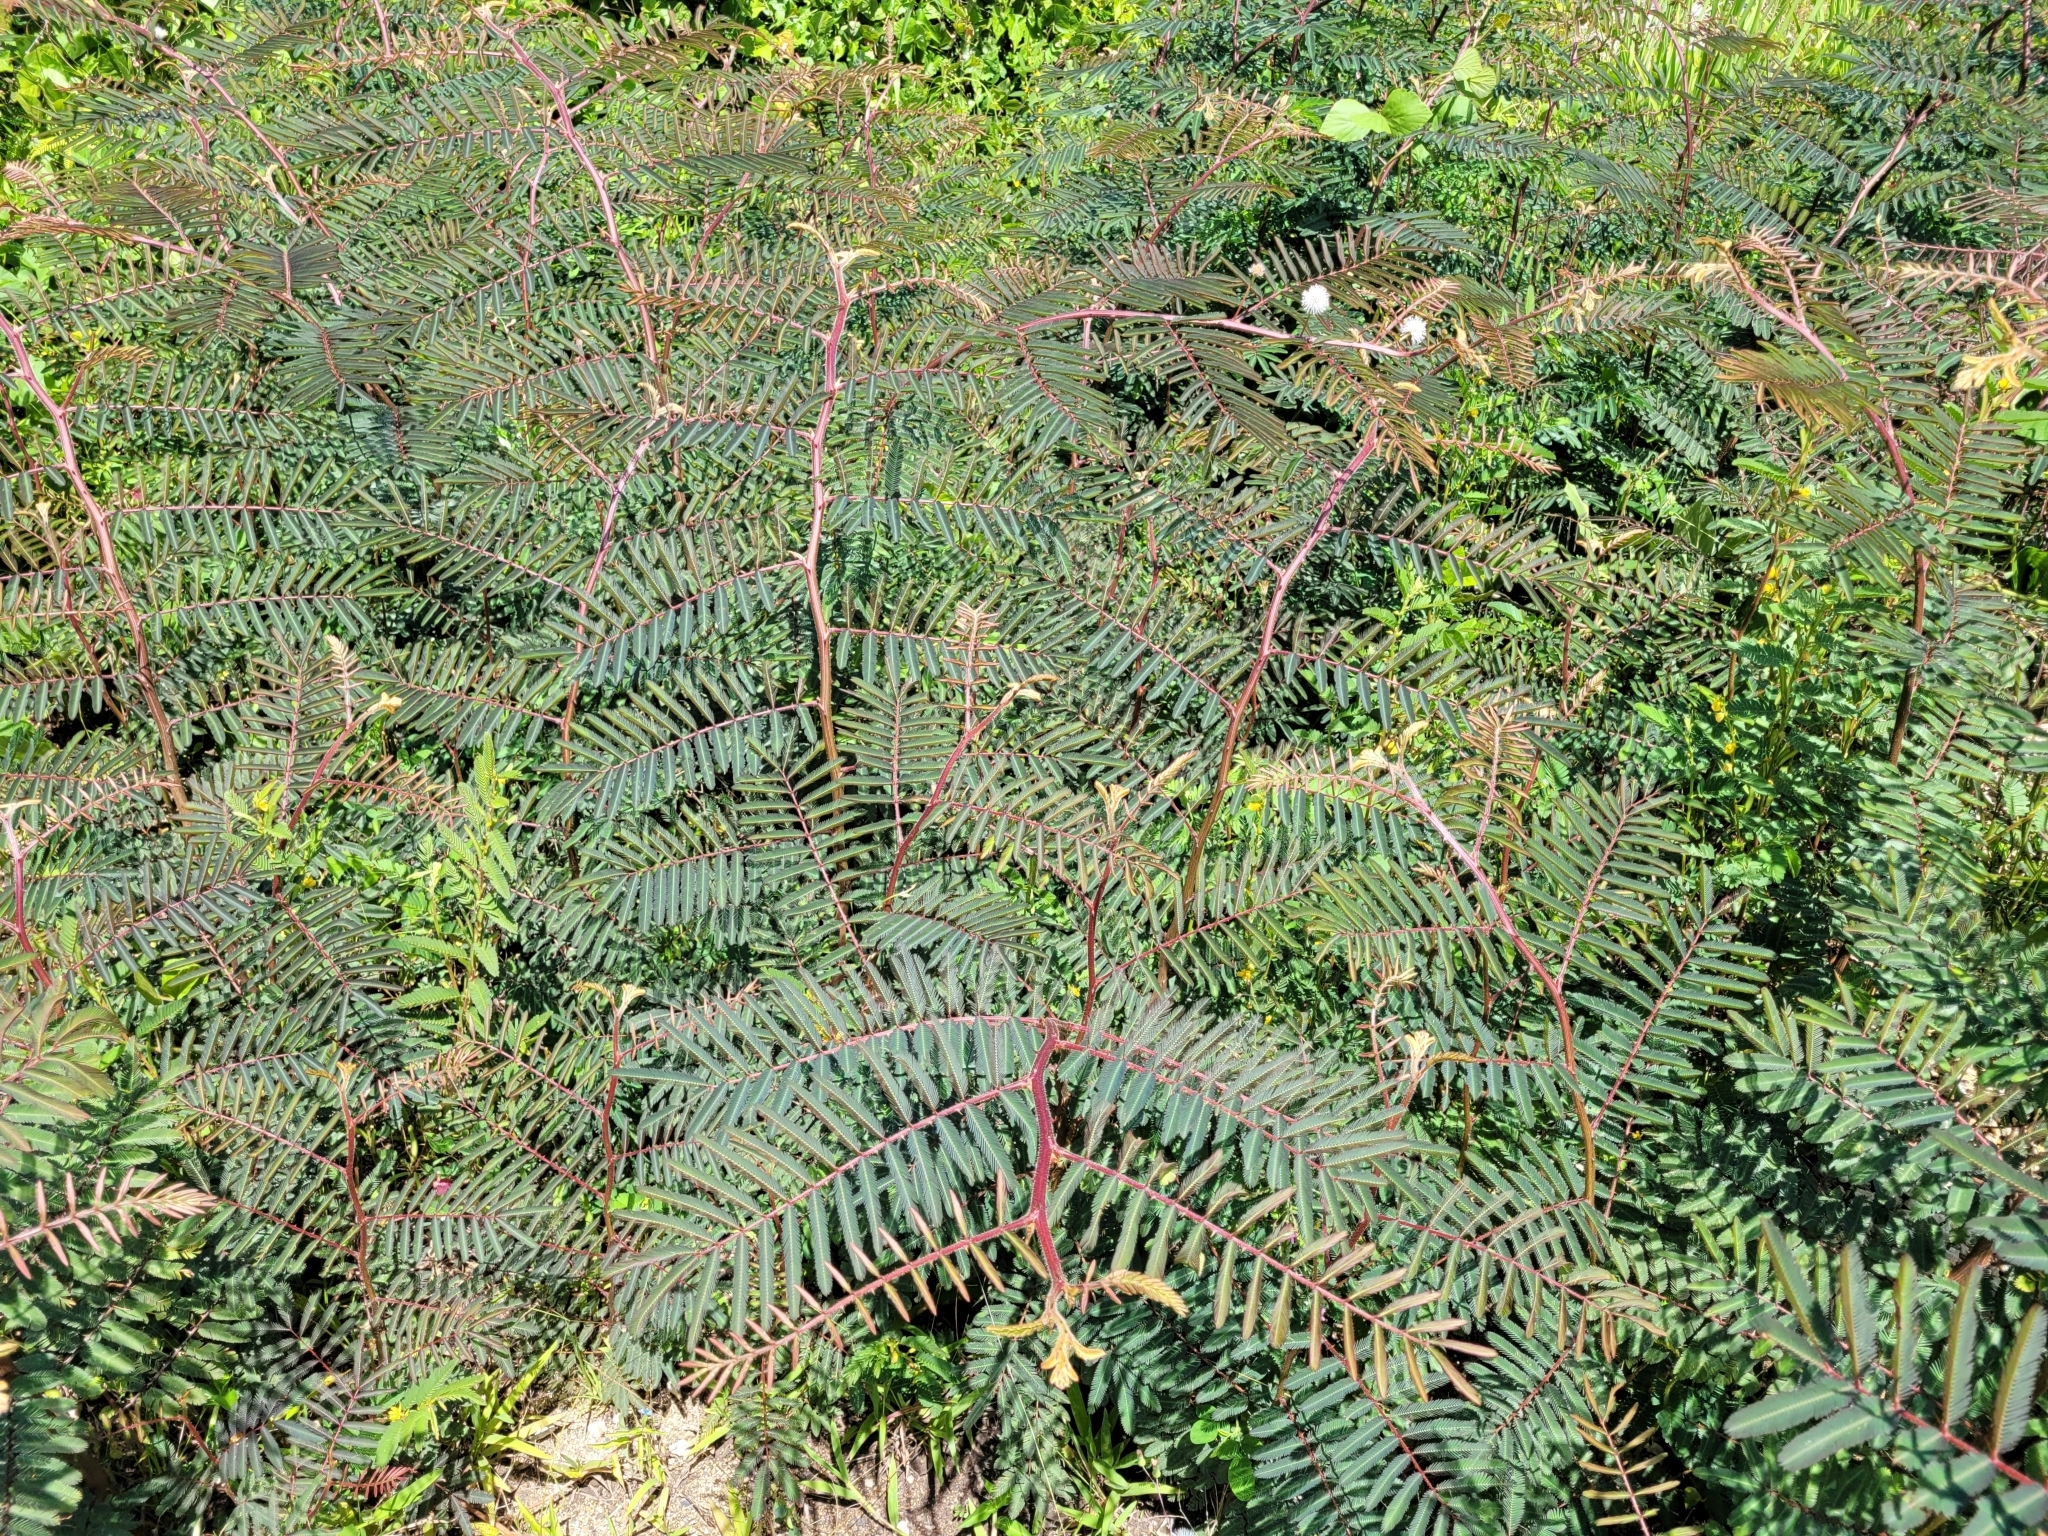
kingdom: Plantae
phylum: Tracheophyta
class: Magnoliopsida
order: Fabales
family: Fabaceae
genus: Mimosa
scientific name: Mimosa pigra
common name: Black mimosa
